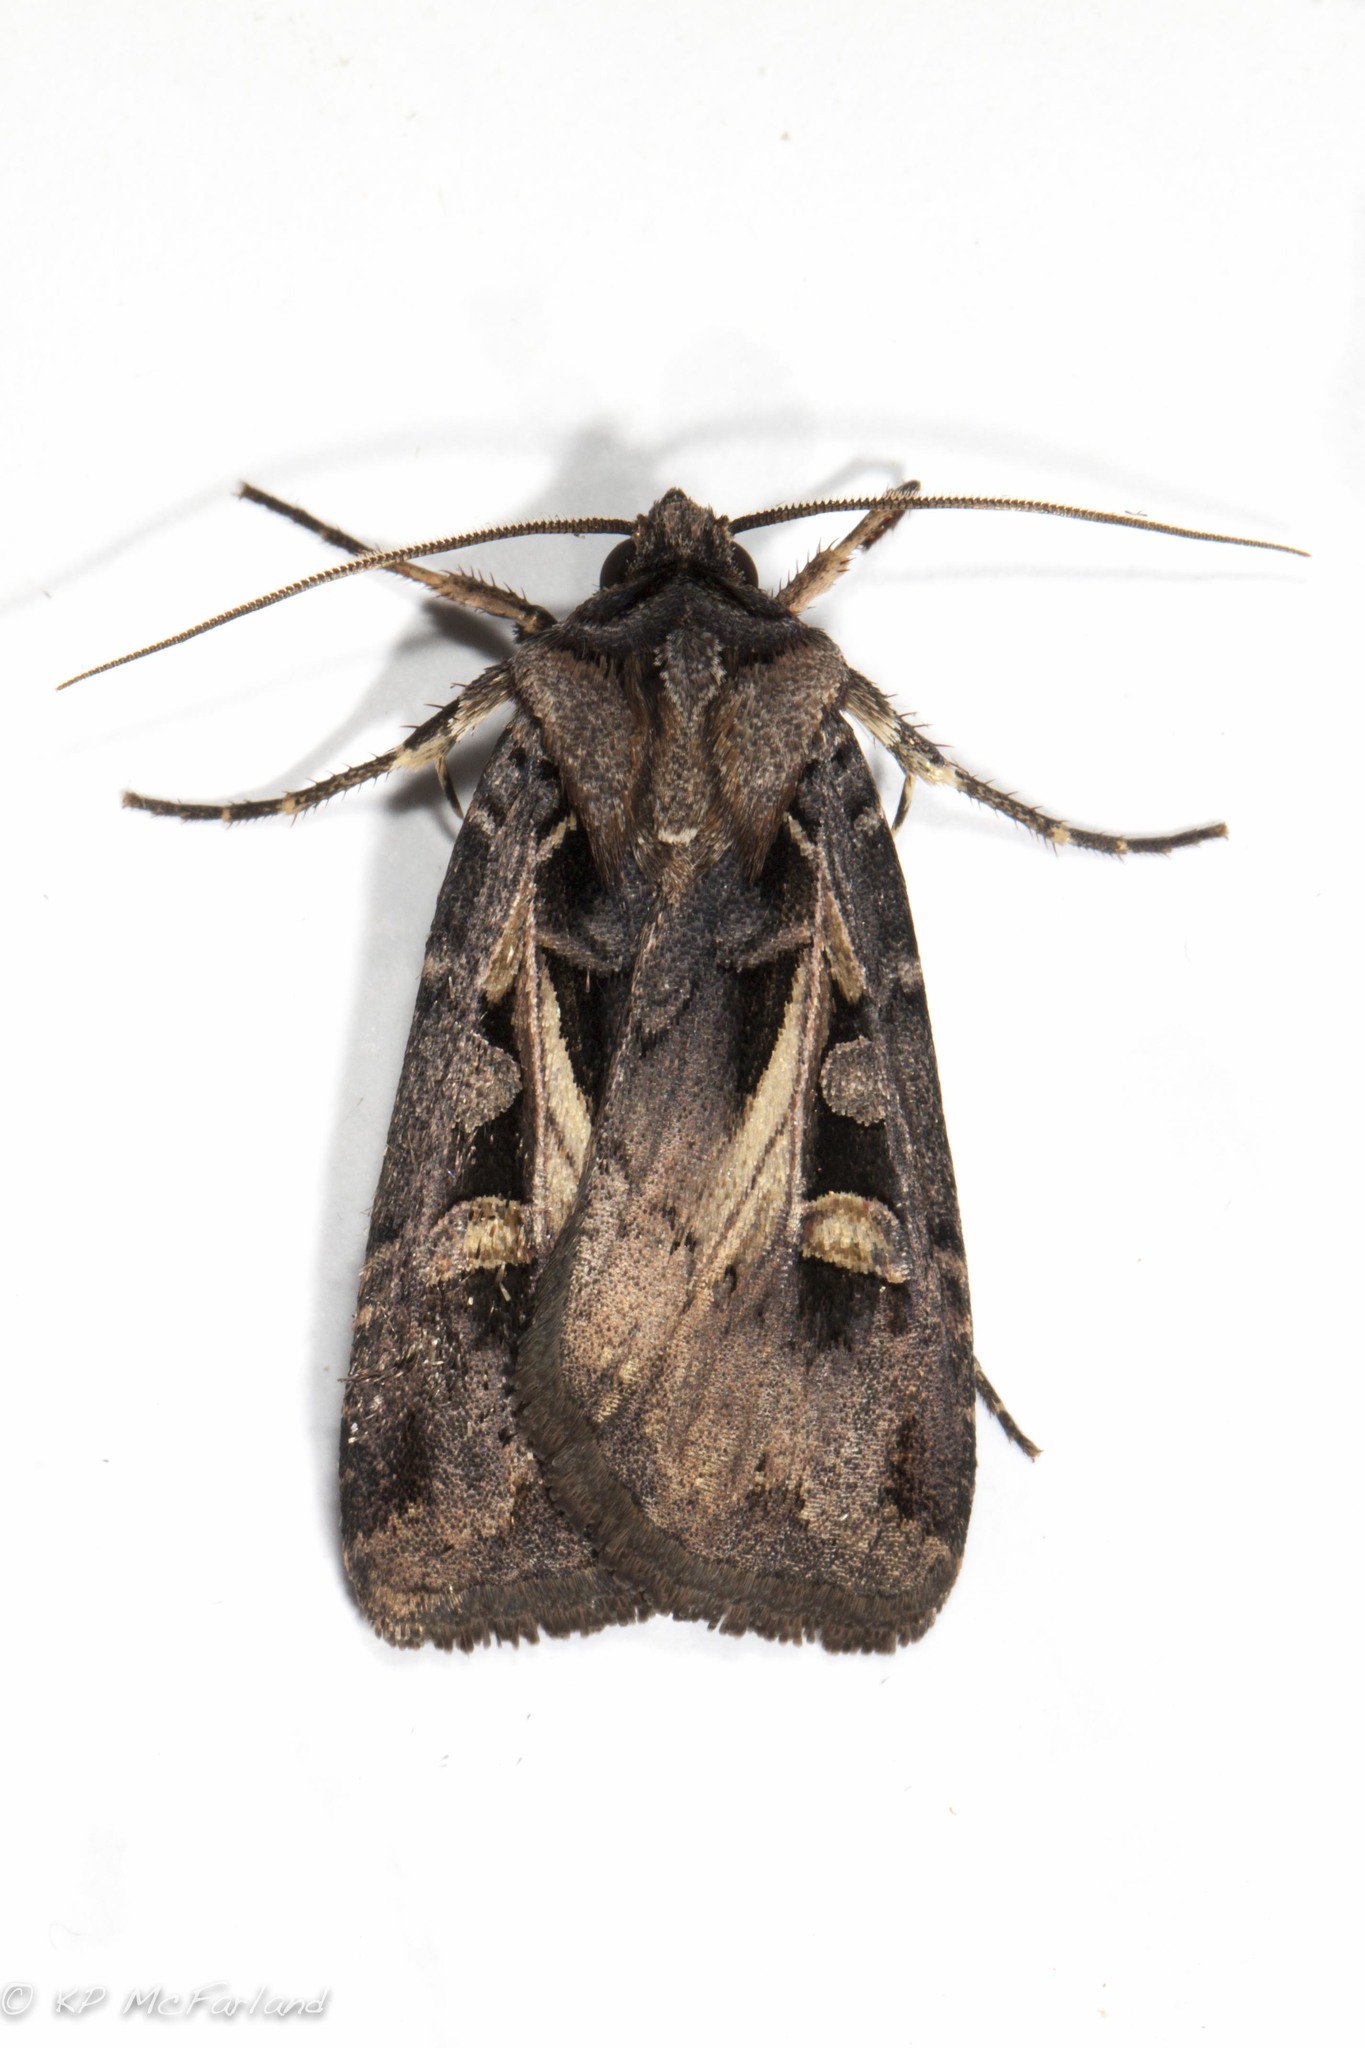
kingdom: Animalia
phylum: Arthropoda
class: Insecta
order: Lepidoptera
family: Noctuidae
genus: Feltia
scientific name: Feltia herilis
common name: Master's dart
